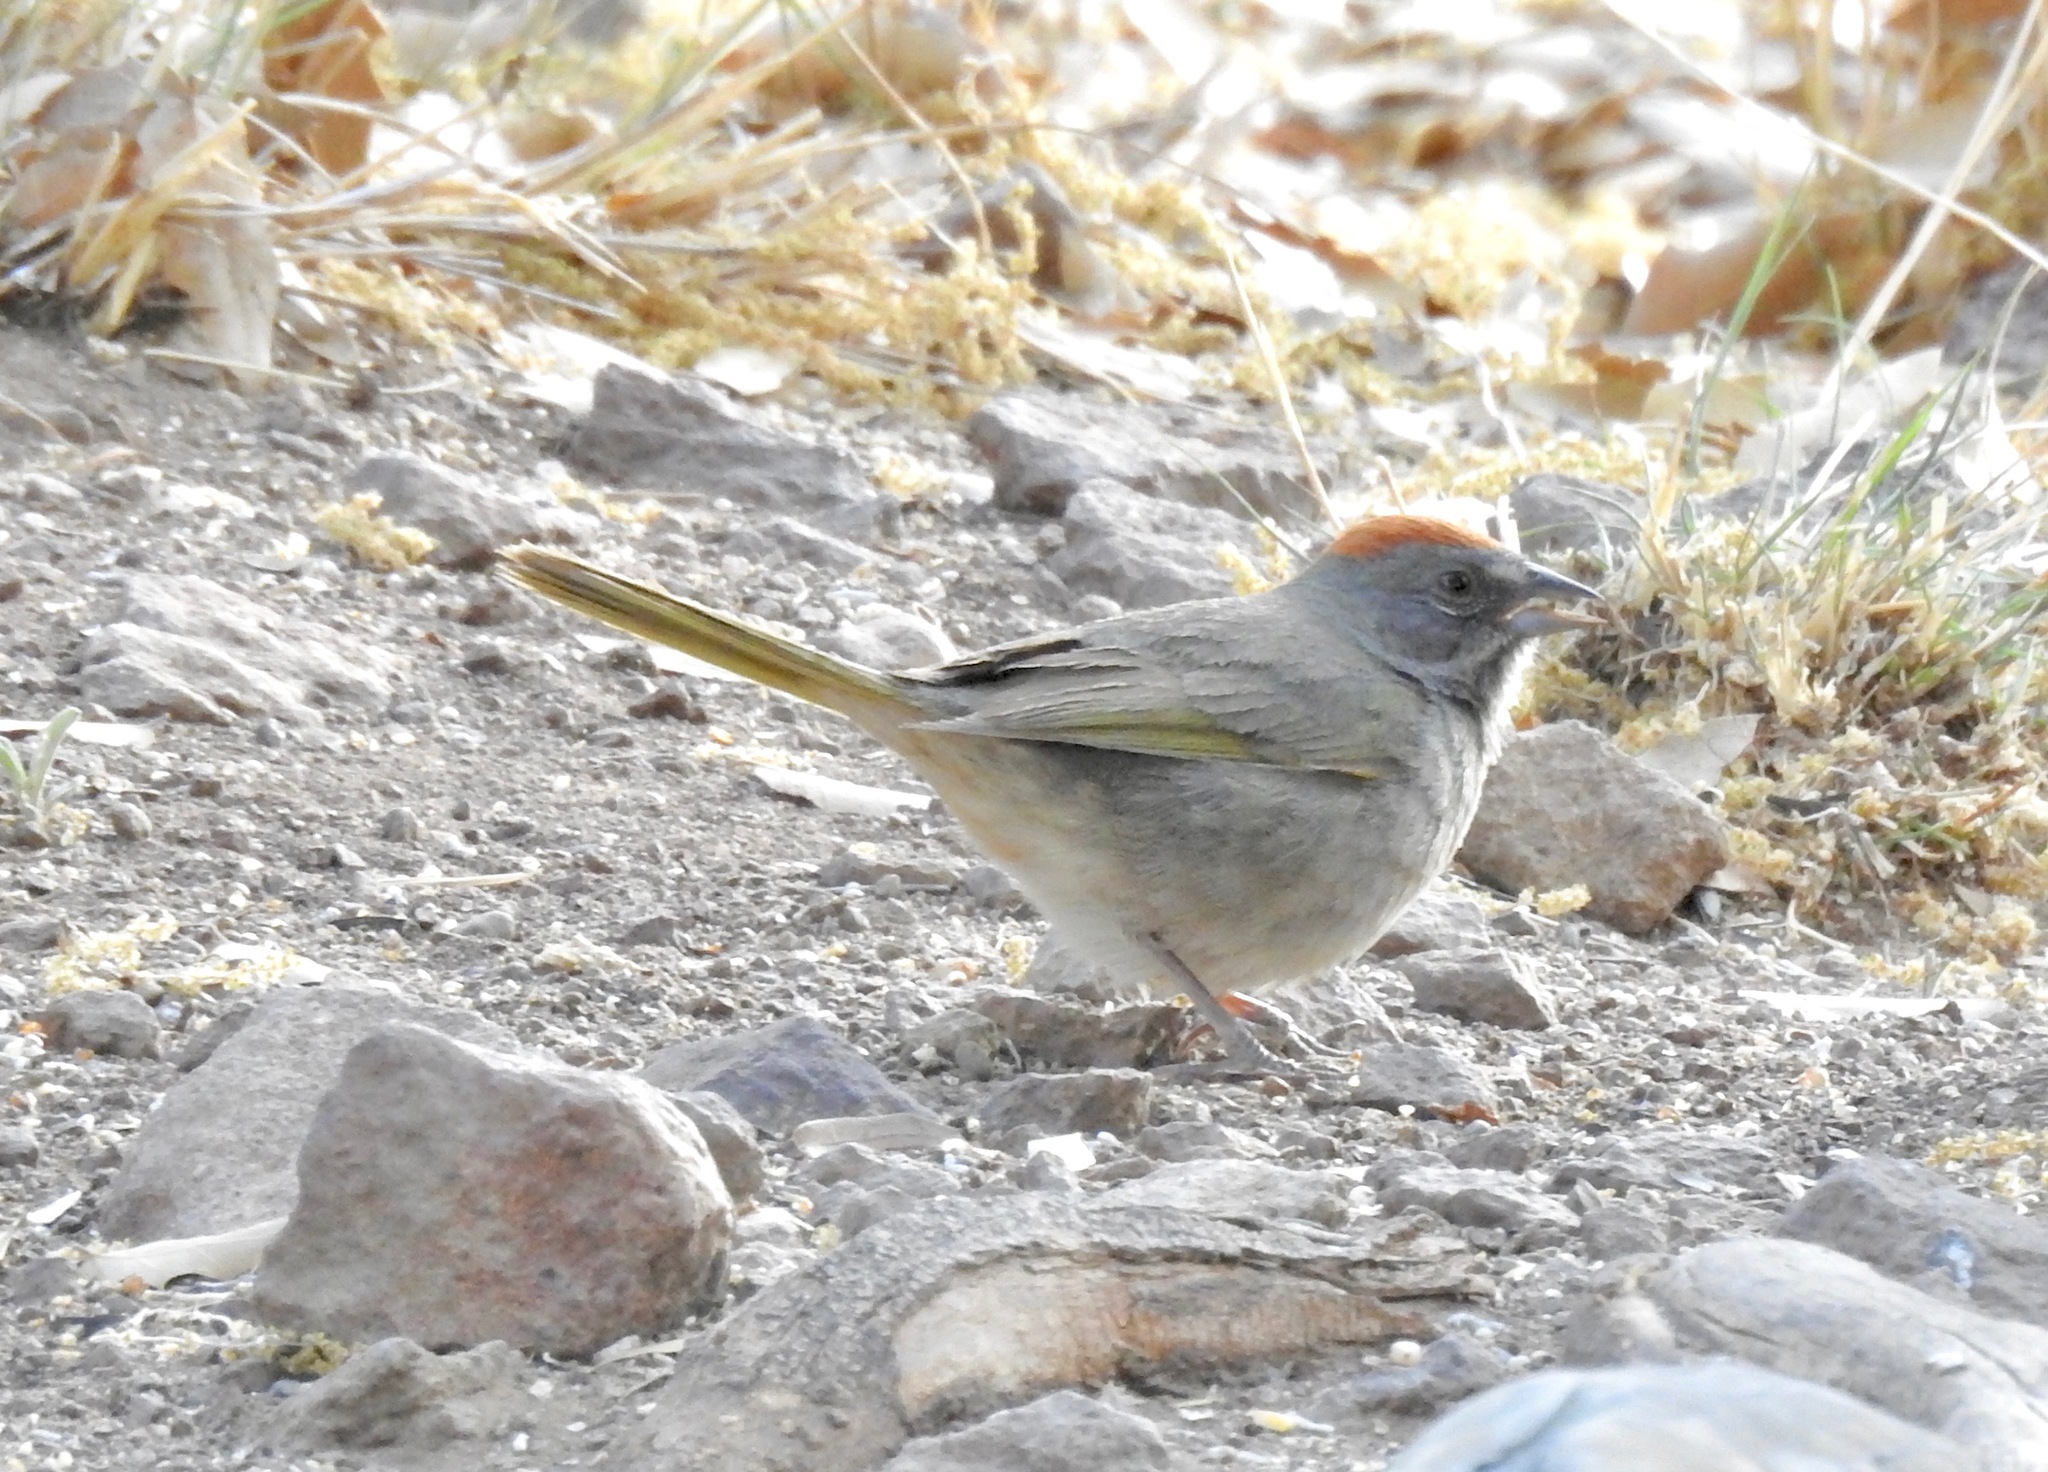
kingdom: Animalia
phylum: Chordata
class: Aves
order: Passeriformes
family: Passerellidae
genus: Pipilo
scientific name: Pipilo chlorurus
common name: Green-tailed towhee
